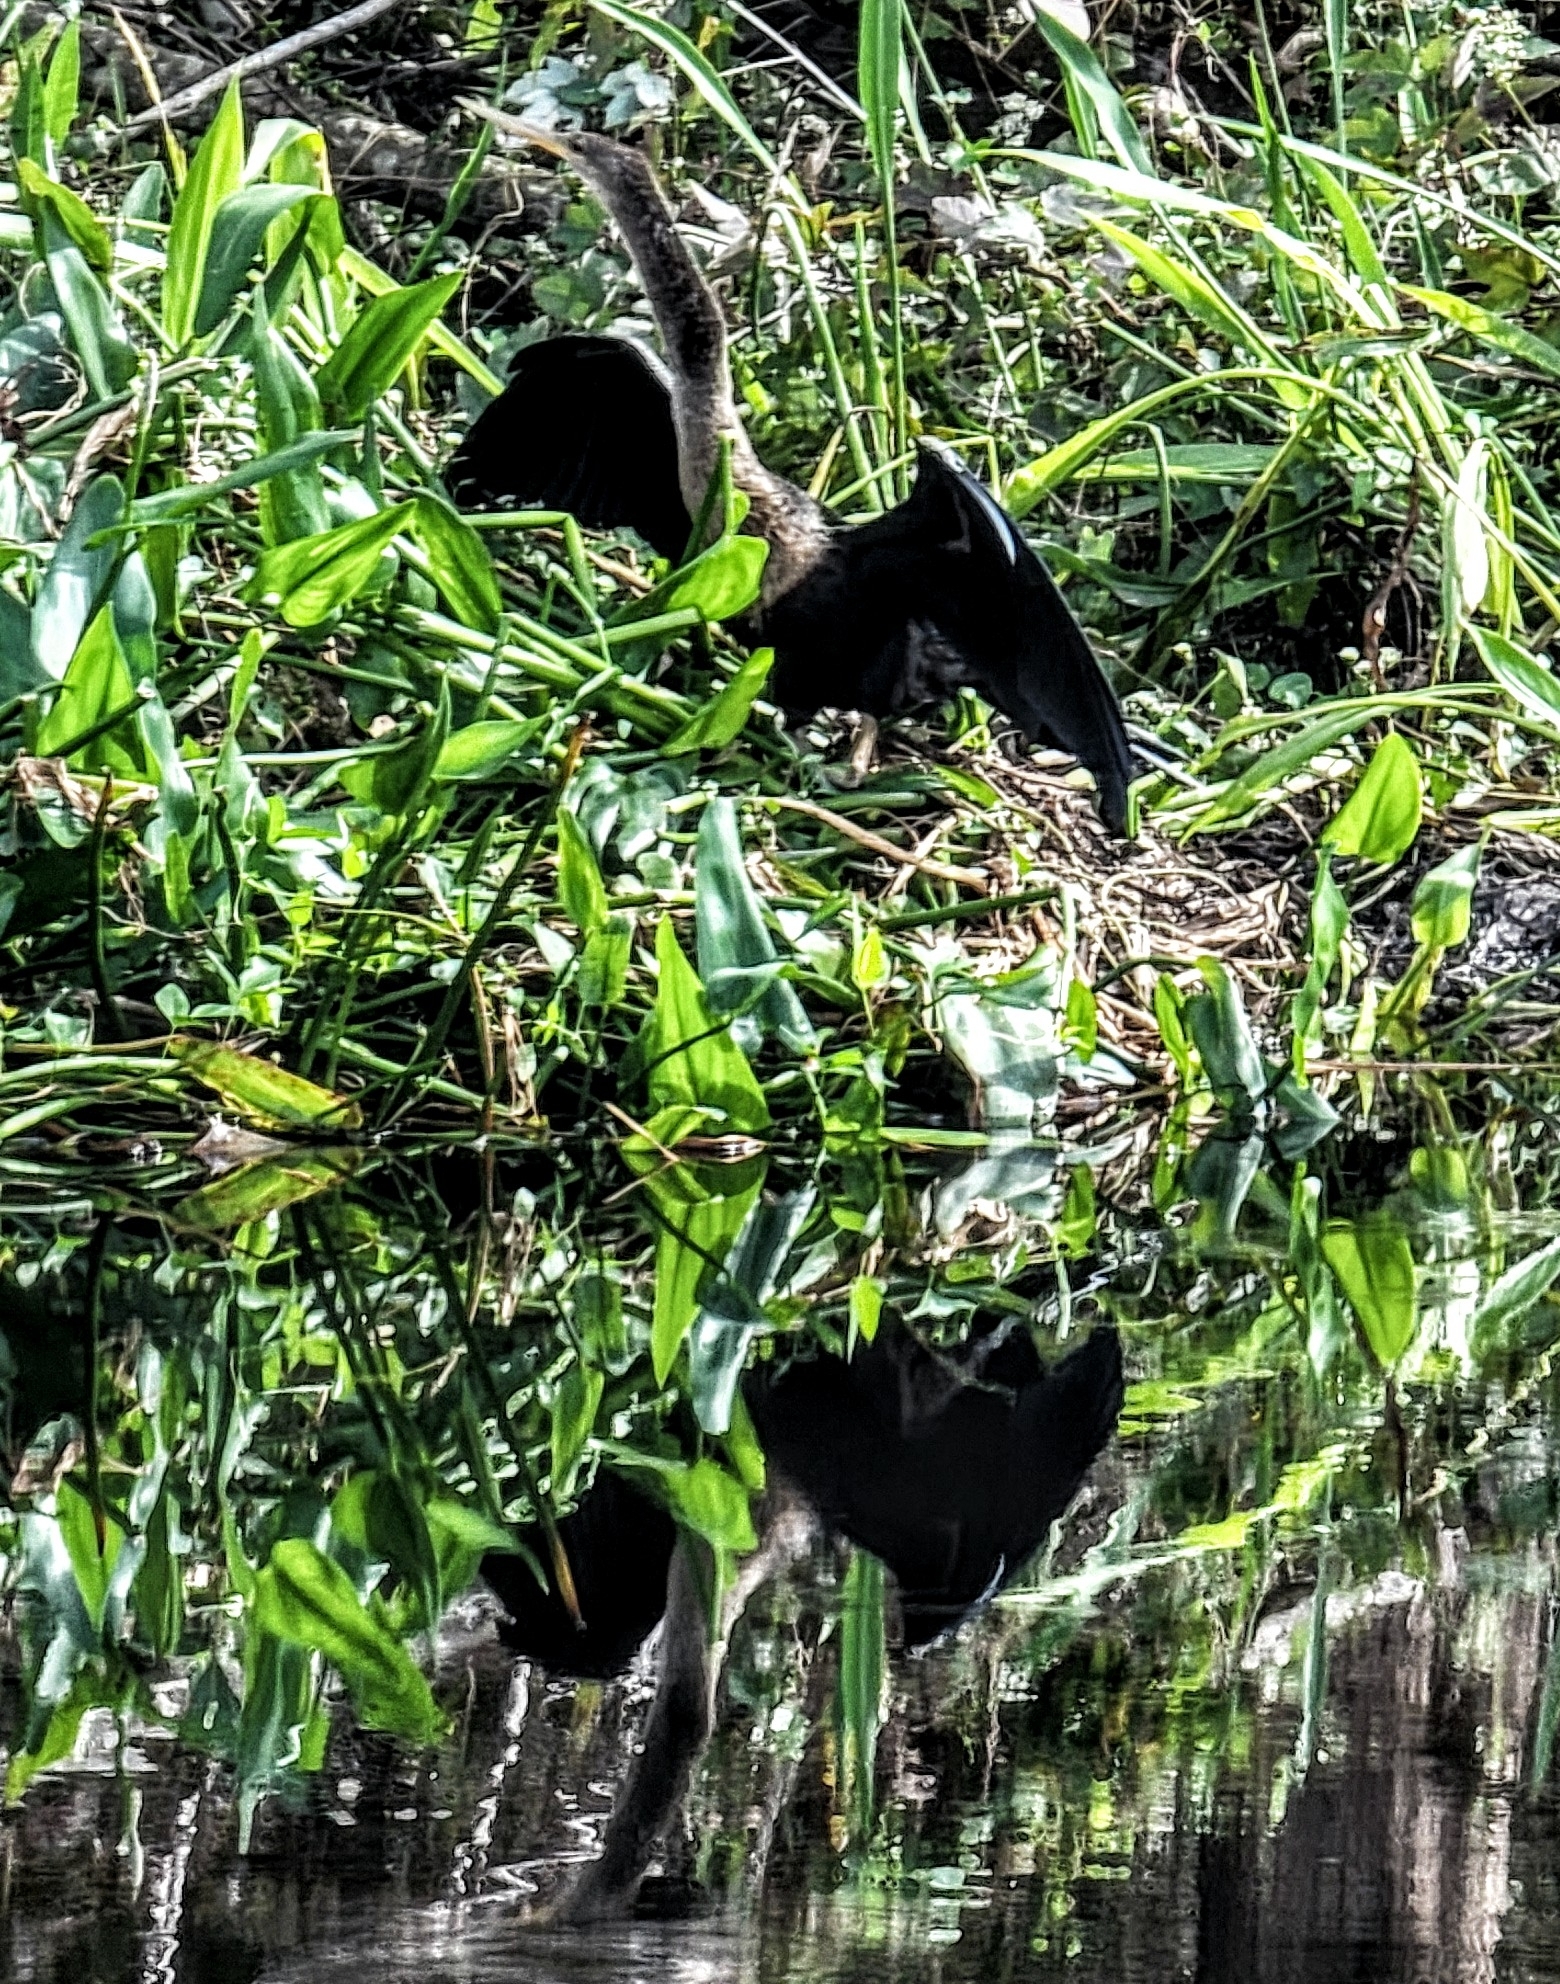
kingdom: Animalia
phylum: Chordata
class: Aves
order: Suliformes
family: Anhingidae
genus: Anhinga
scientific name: Anhinga anhinga
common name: Anhinga
